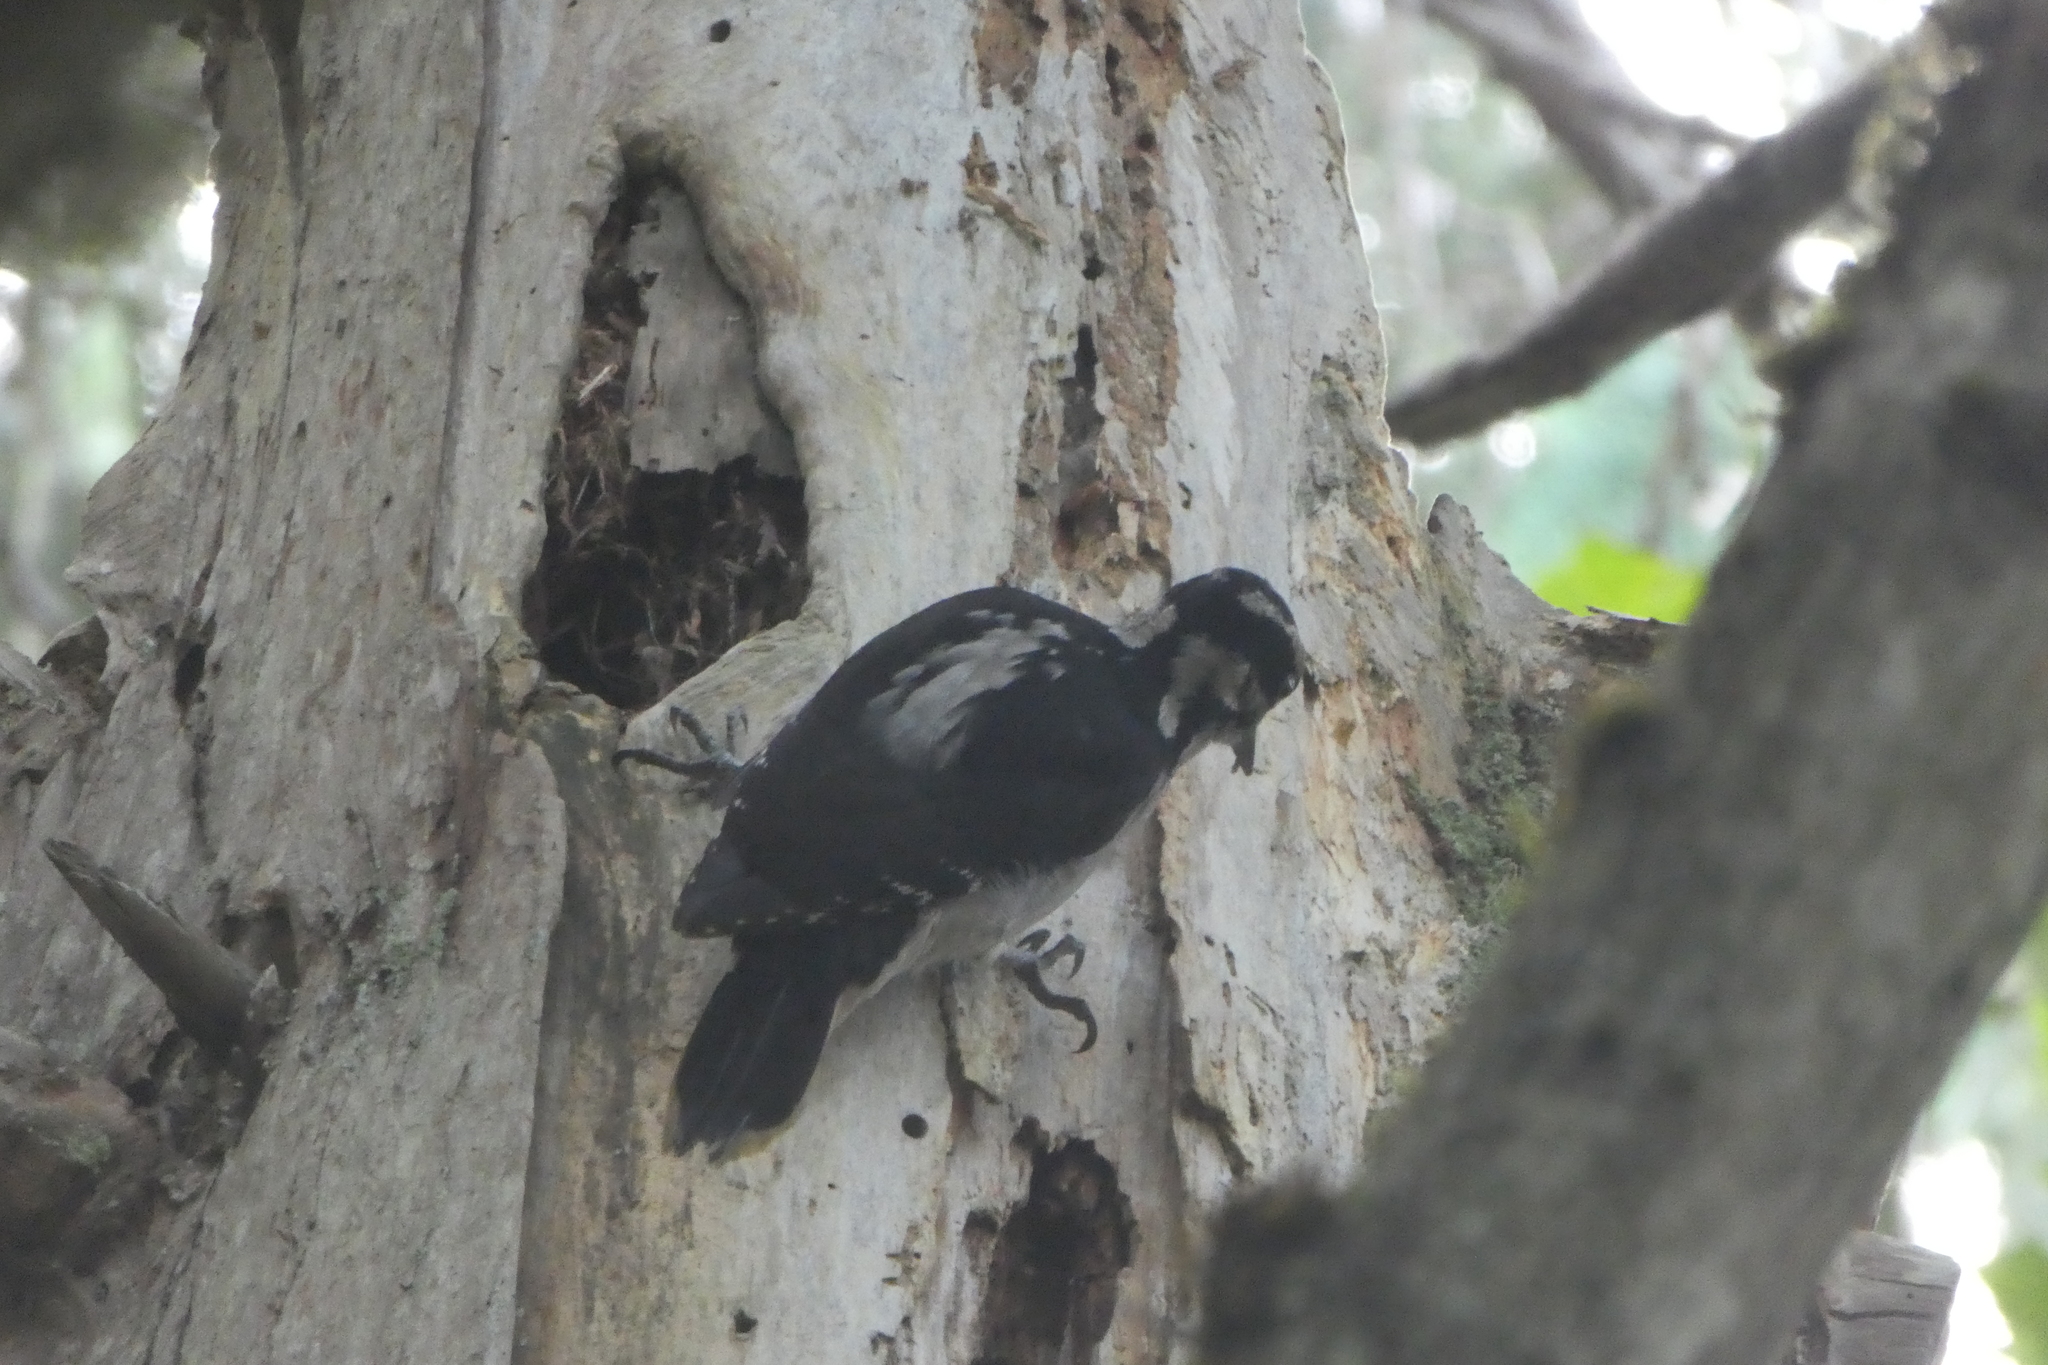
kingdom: Animalia
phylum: Chordata
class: Aves
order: Piciformes
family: Picidae
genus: Leuconotopicus
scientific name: Leuconotopicus villosus
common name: Hairy woodpecker
